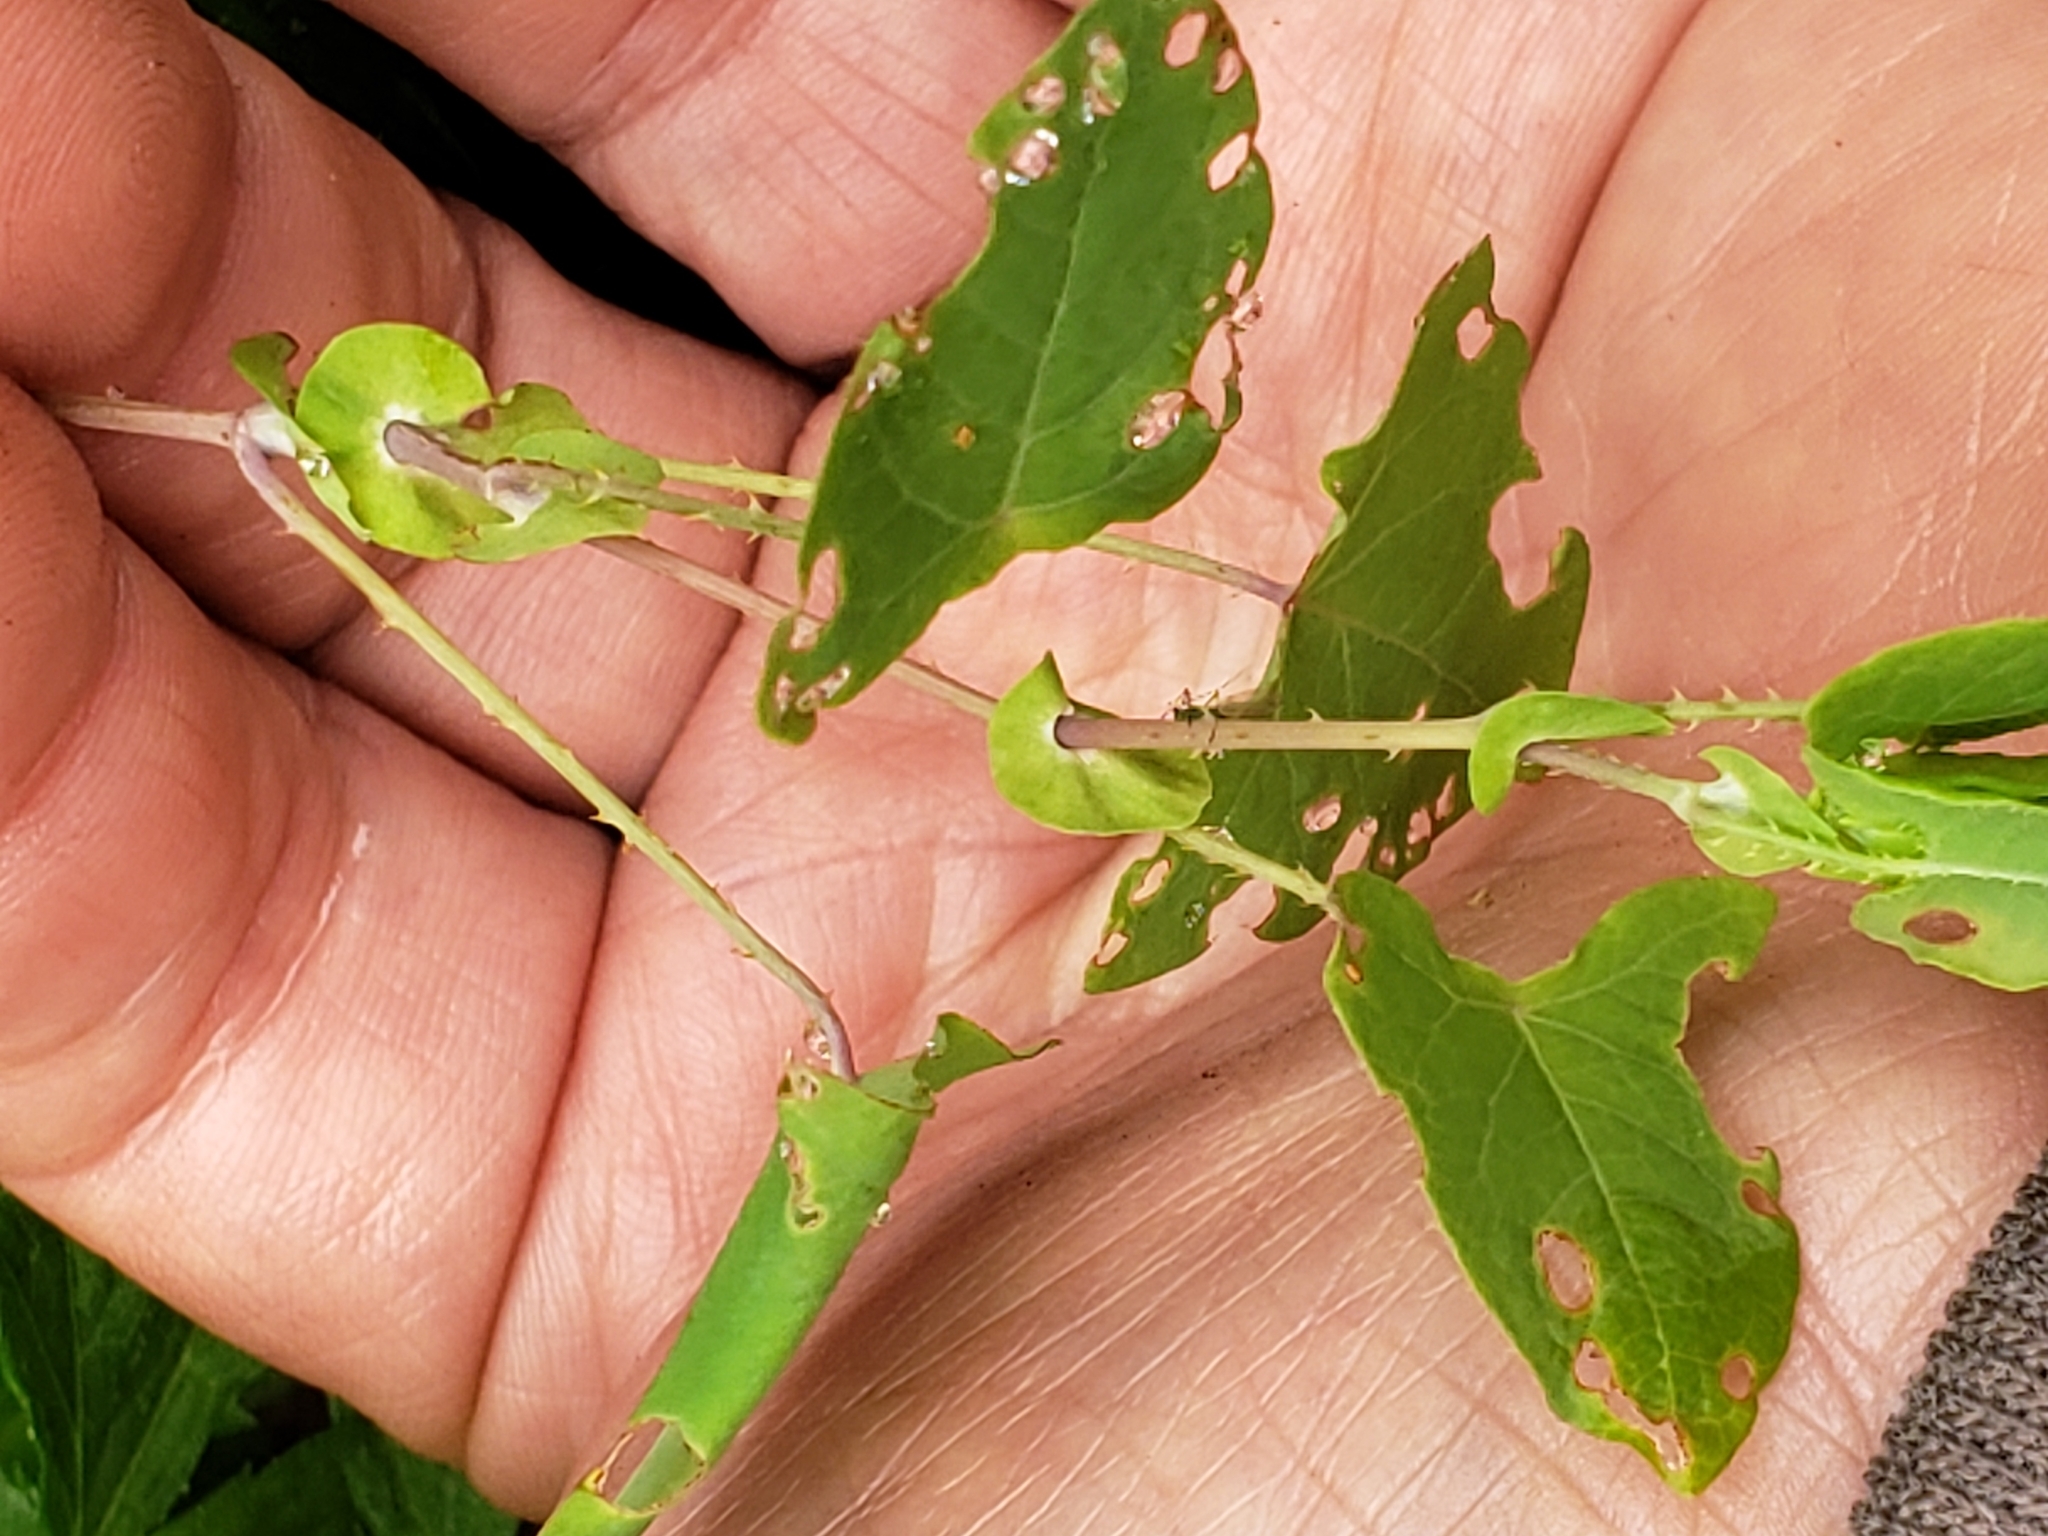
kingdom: Plantae
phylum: Tracheophyta
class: Magnoliopsida
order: Caryophyllales
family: Polygonaceae
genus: Persicaria
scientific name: Persicaria perfoliata
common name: Asiatic tearthumb
